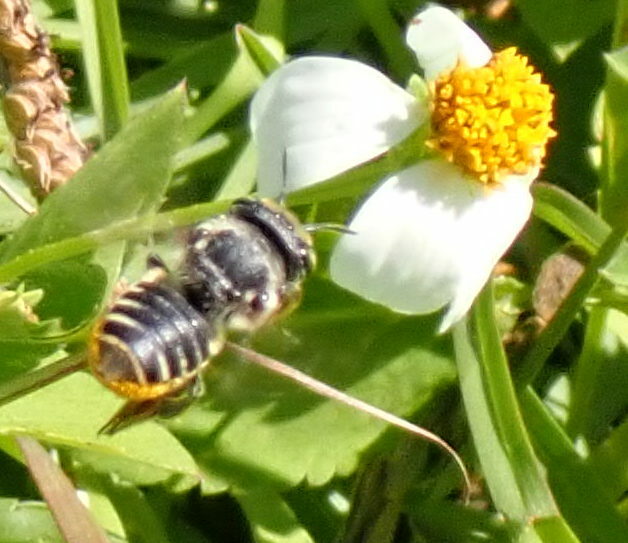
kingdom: Animalia
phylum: Arthropoda
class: Insecta
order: Hymenoptera
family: Megachilidae
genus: Megachile
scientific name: Megachile
